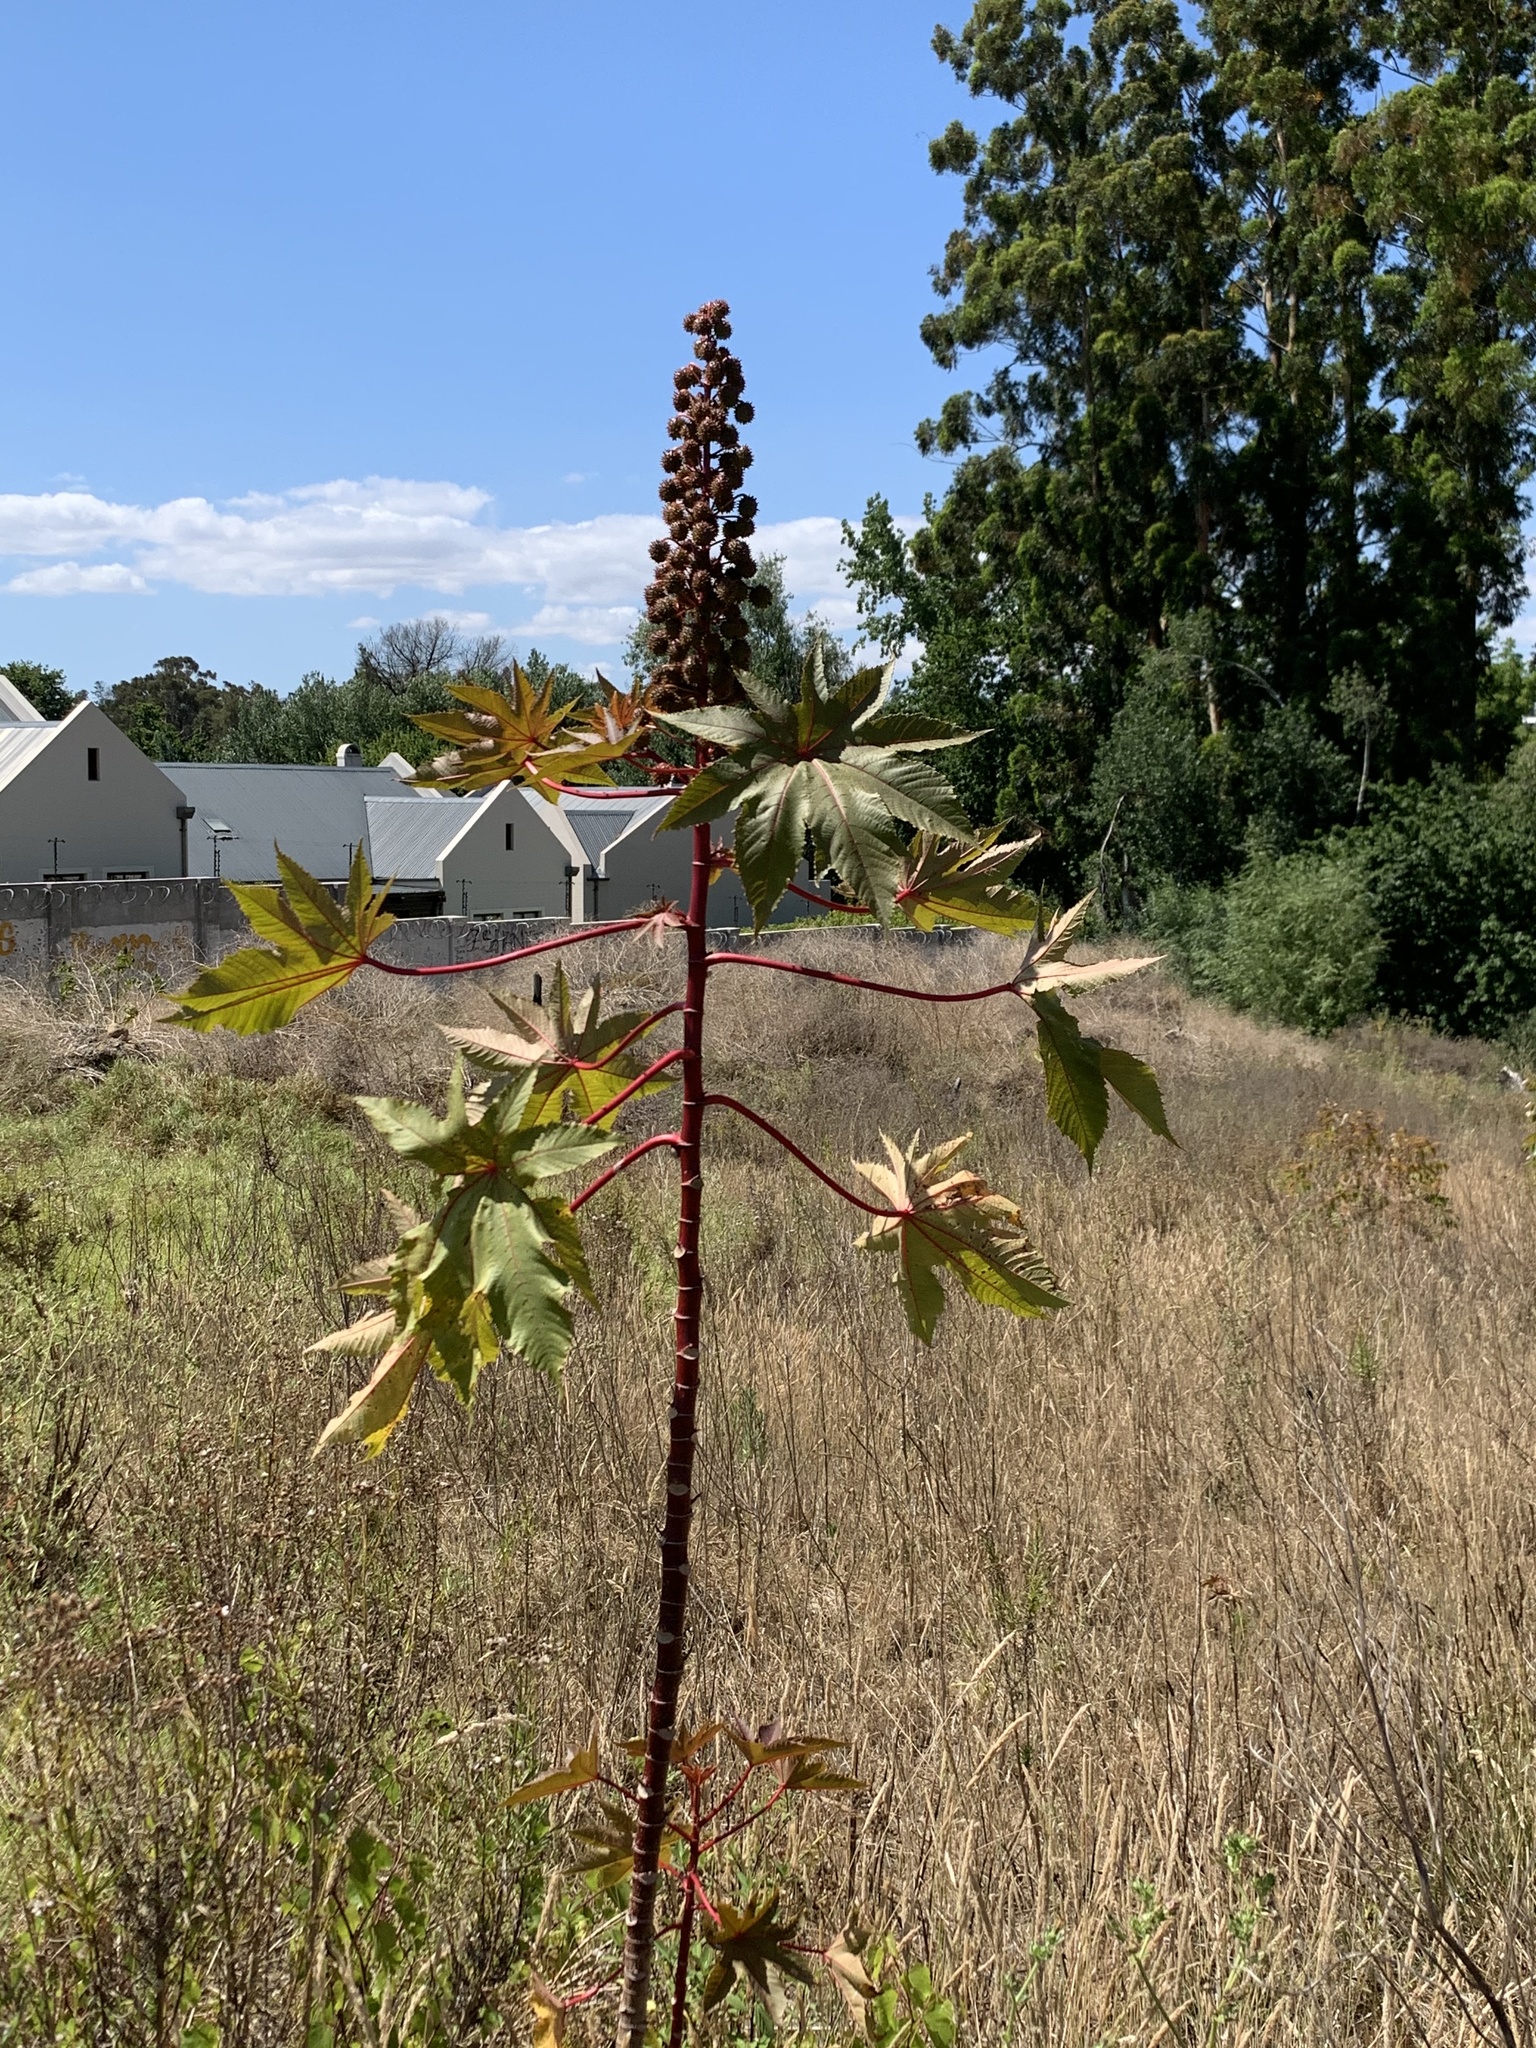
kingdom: Plantae
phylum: Tracheophyta
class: Magnoliopsida
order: Malpighiales
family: Euphorbiaceae
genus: Ricinus
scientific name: Ricinus communis
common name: Castor-oil-plant
